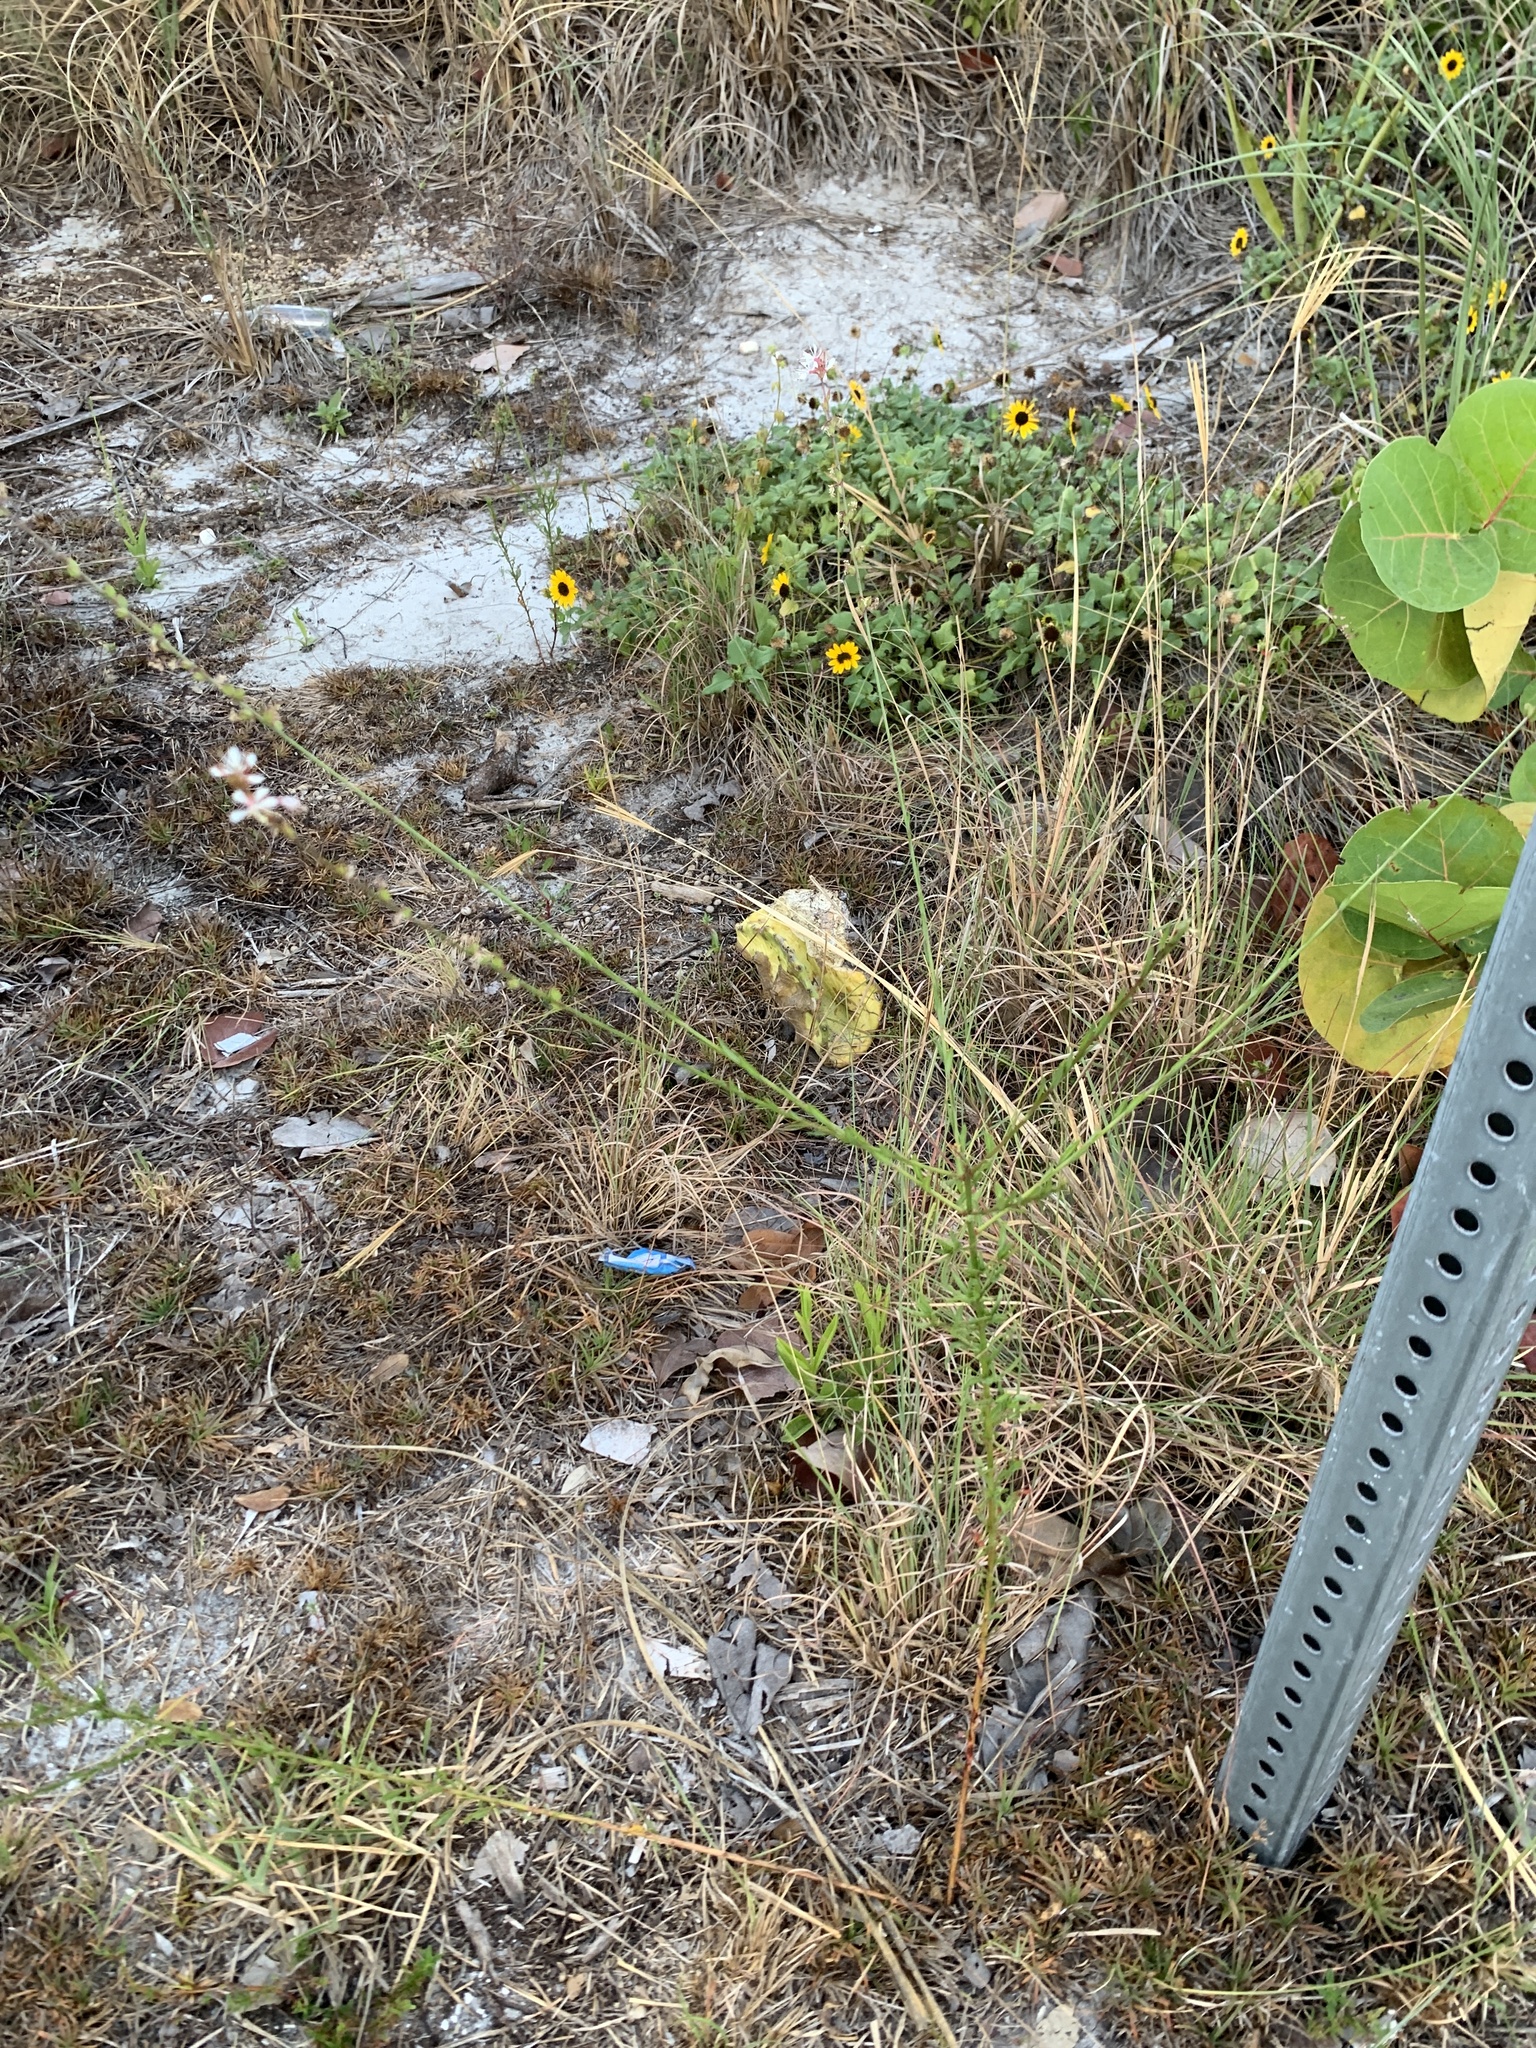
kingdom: Plantae
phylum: Tracheophyta
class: Magnoliopsida
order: Myrtales
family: Onagraceae
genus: Oenothera
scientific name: Oenothera simulans
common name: Southern beeblossom
